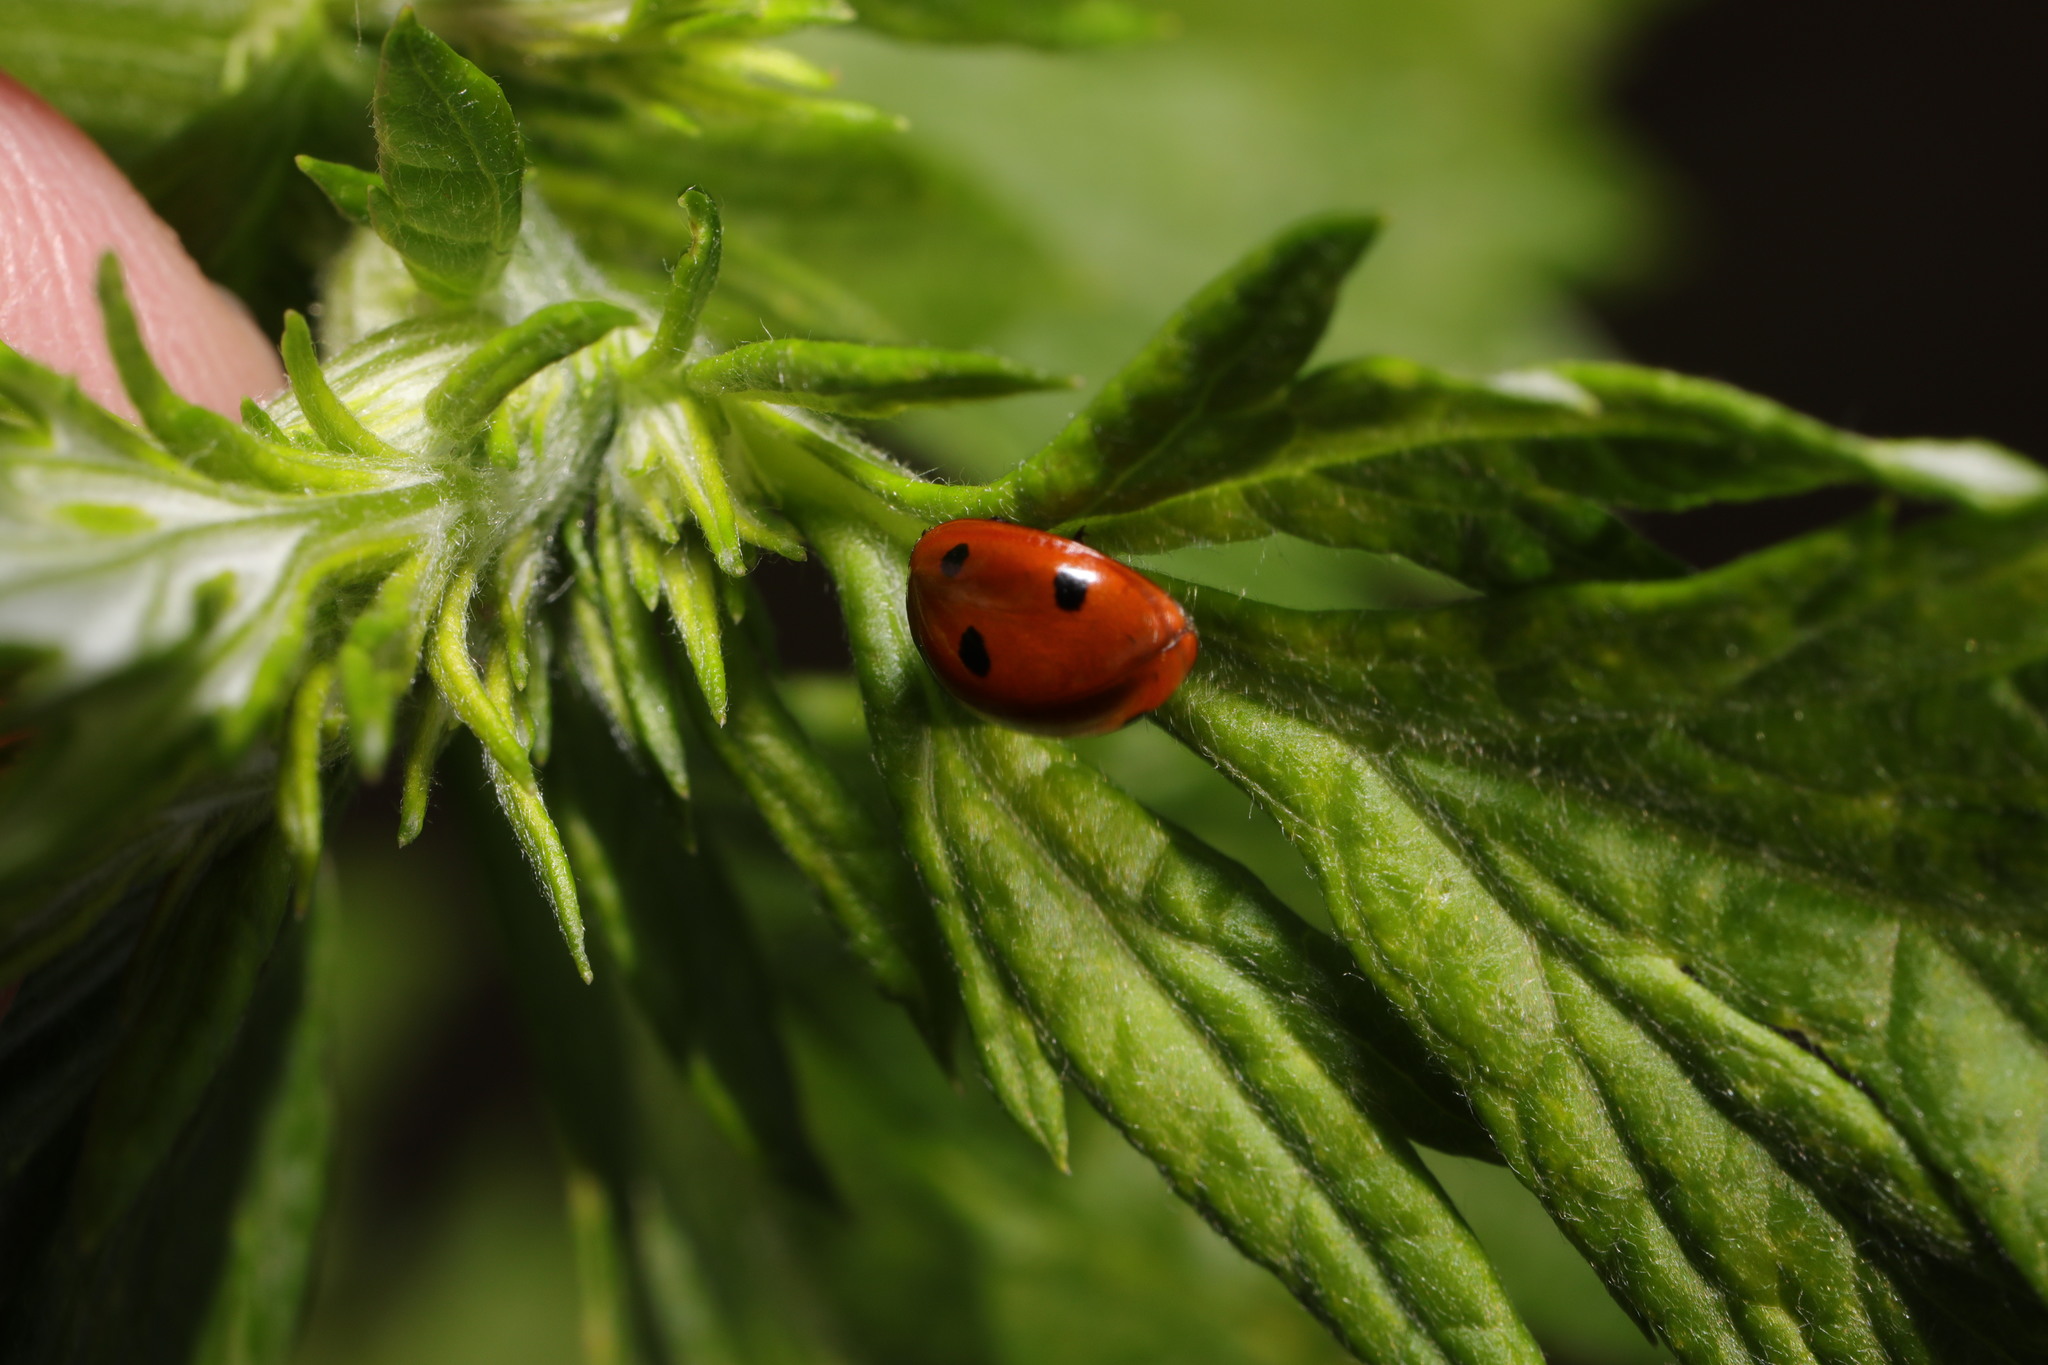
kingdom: Animalia
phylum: Arthropoda
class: Insecta
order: Coleoptera
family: Coccinellidae
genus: Coccinella
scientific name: Coccinella septempunctata
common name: Sevenspotted lady beetle
